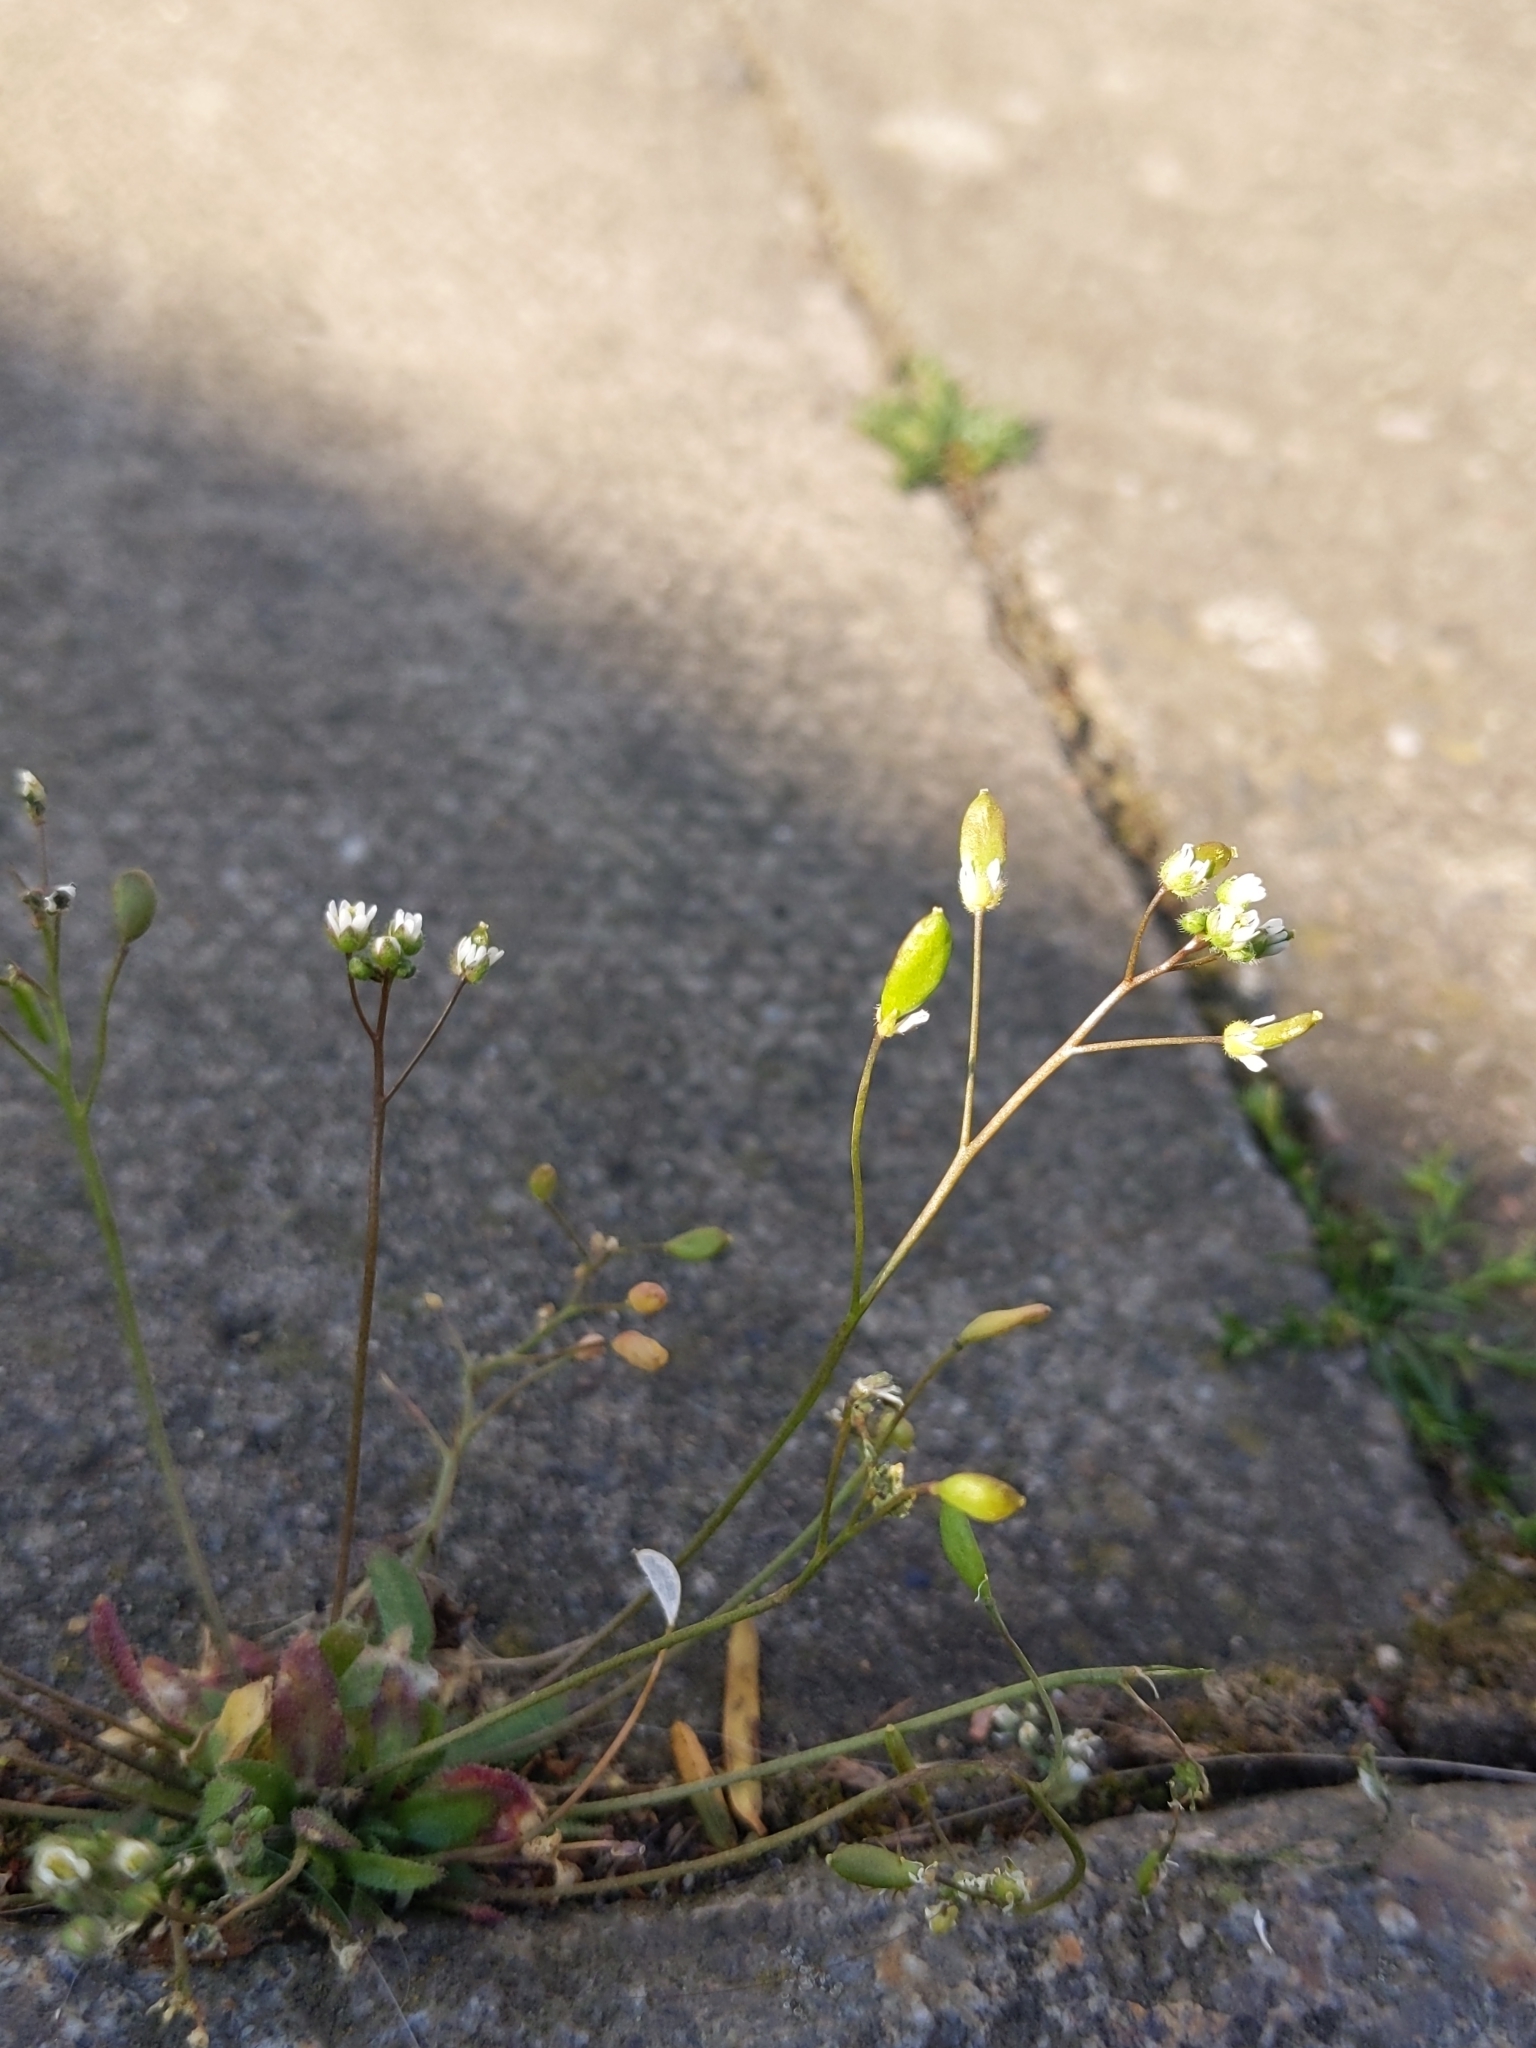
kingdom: Plantae
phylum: Tracheophyta
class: Magnoliopsida
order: Brassicales
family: Brassicaceae
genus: Draba
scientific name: Draba verna
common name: Spring draba
